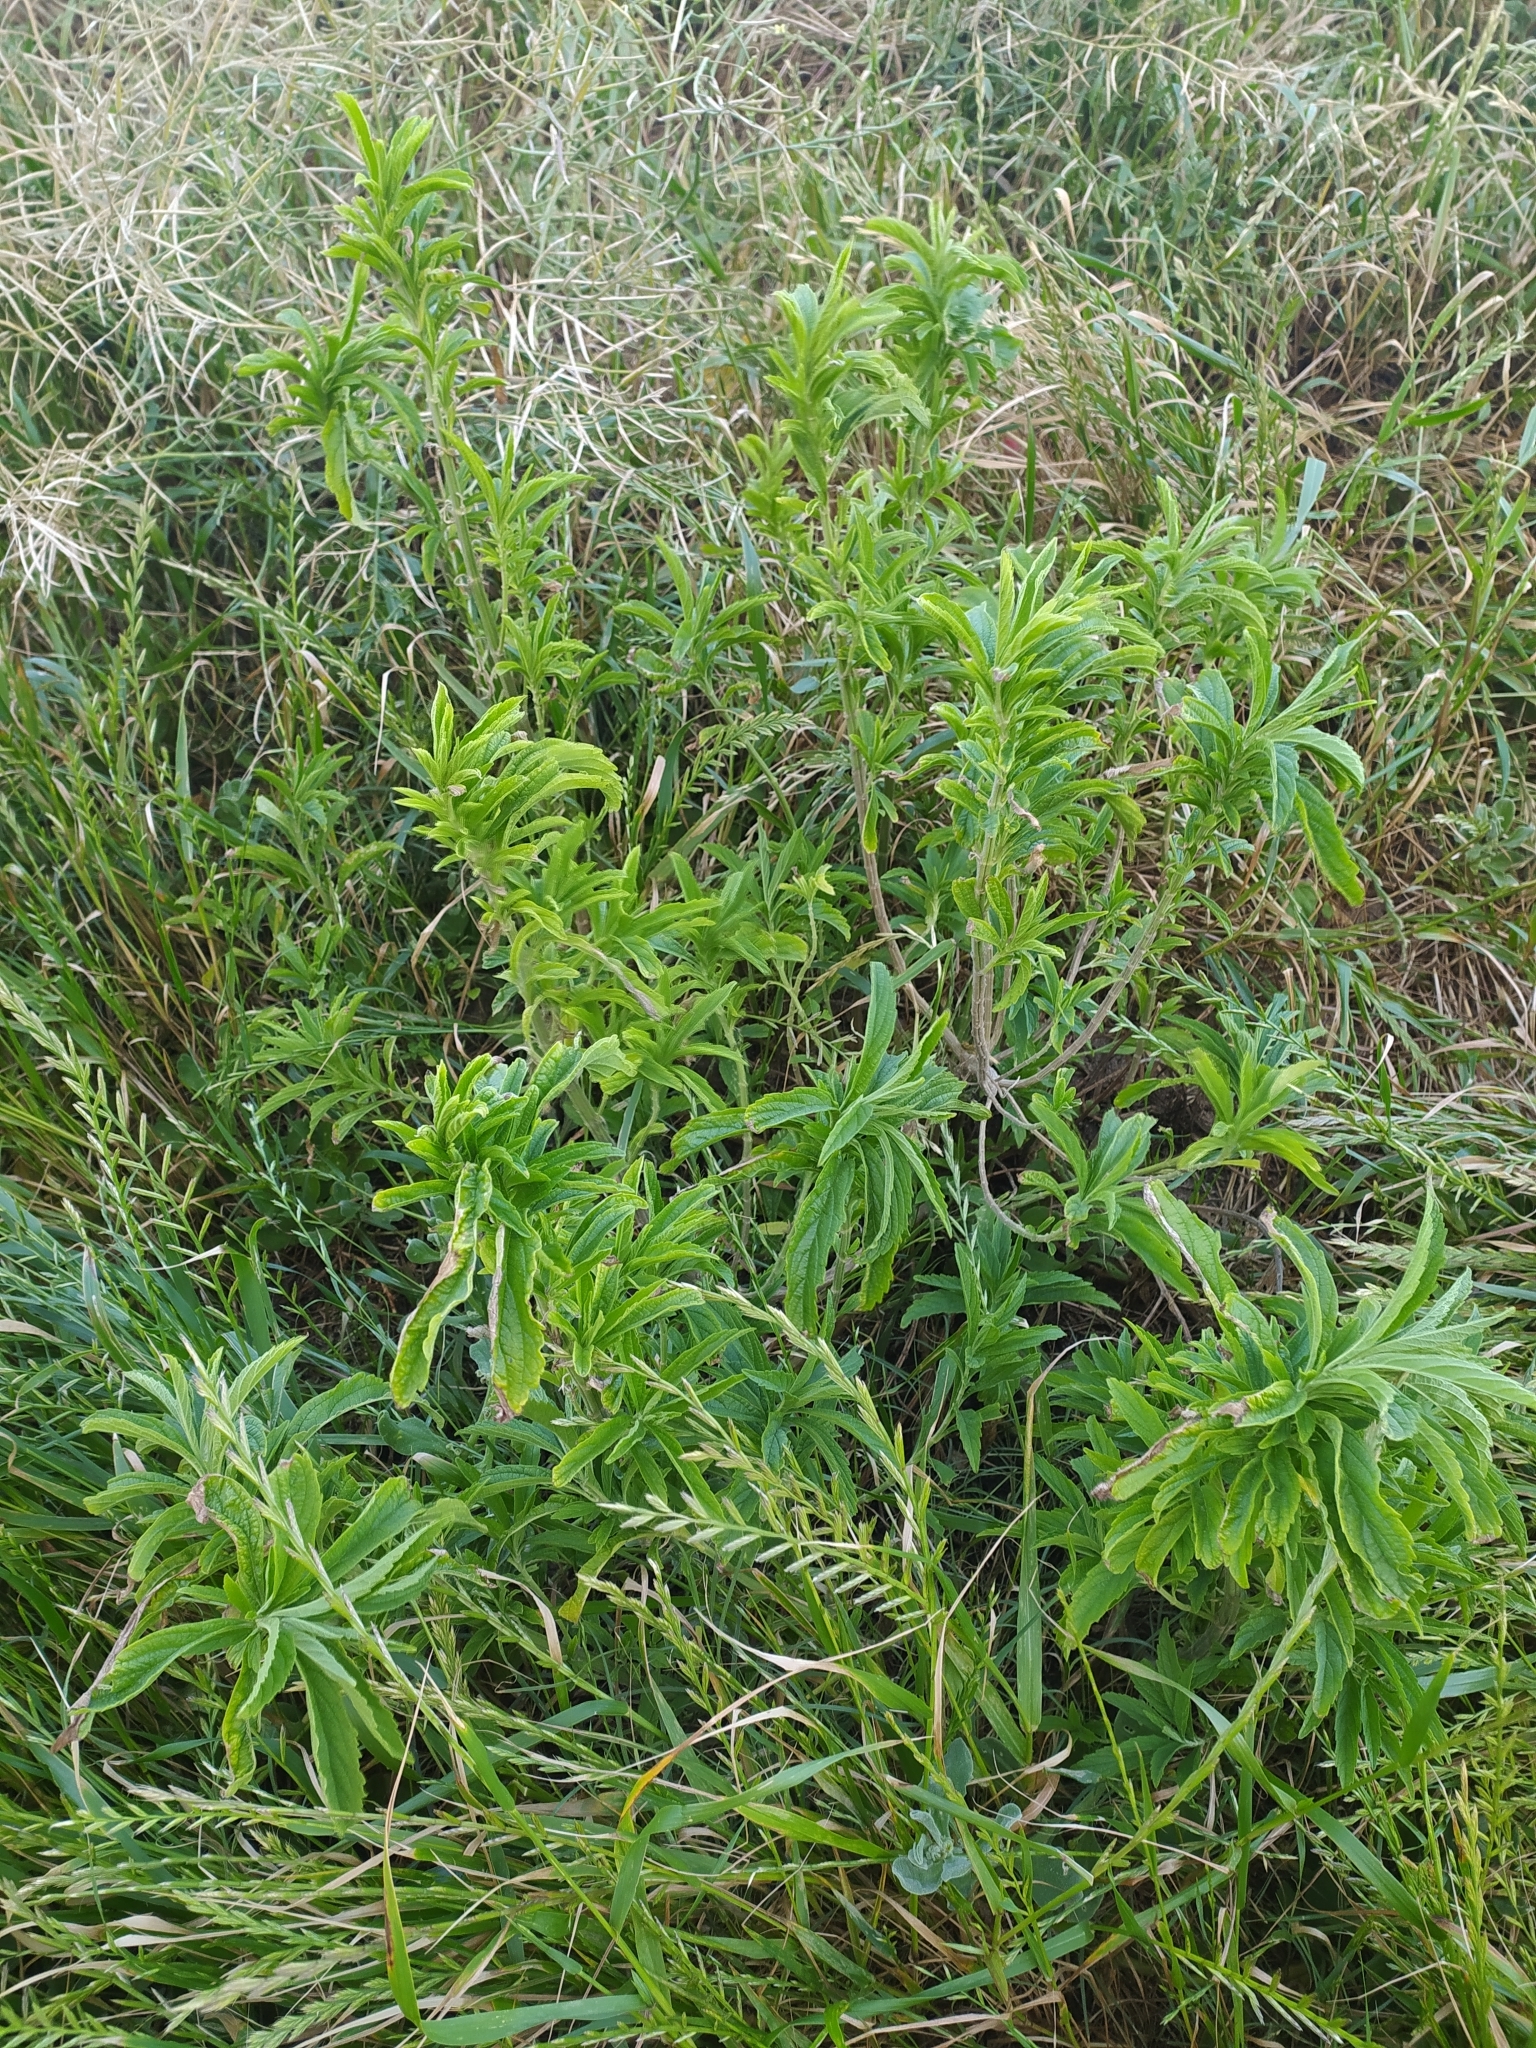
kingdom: Plantae
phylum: Tracheophyta
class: Magnoliopsida
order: Lamiales
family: Lamiaceae
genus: Leonotis
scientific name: Leonotis leonurus
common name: Lion's ear
